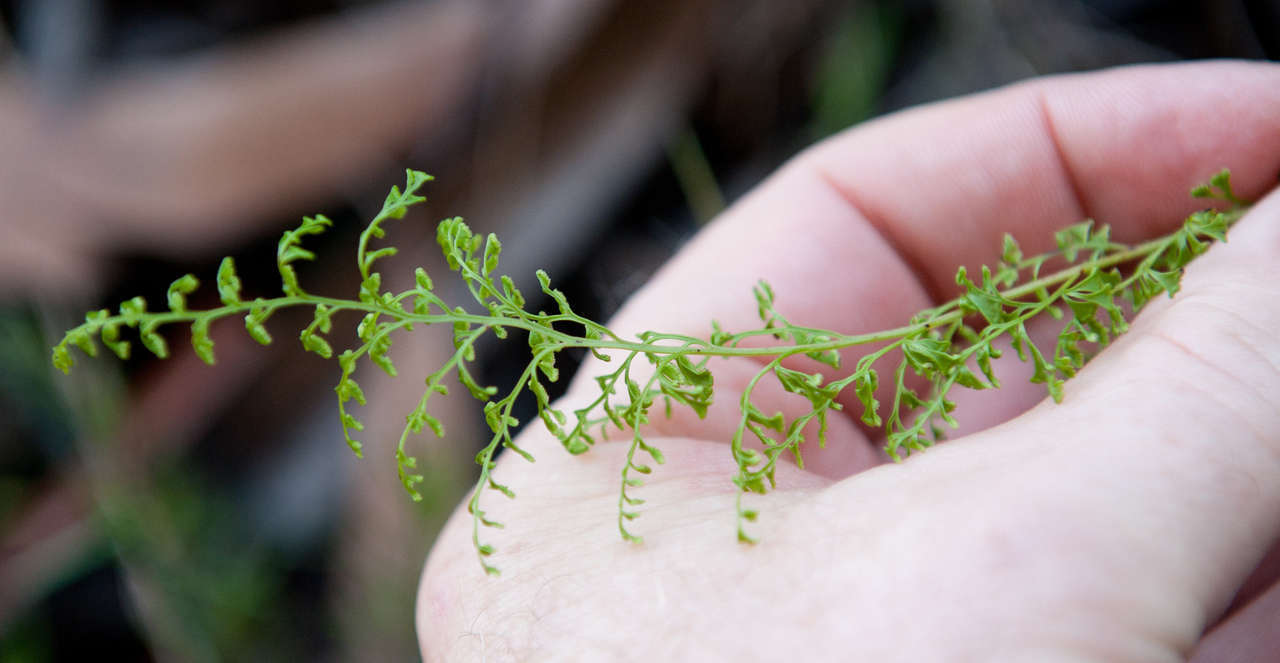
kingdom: Plantae
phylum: Tracheophyta
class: Polypodiopsida
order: Polypodiales
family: Lindsaeaceae
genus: Lindsaea
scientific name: Lindsaea microphylla
